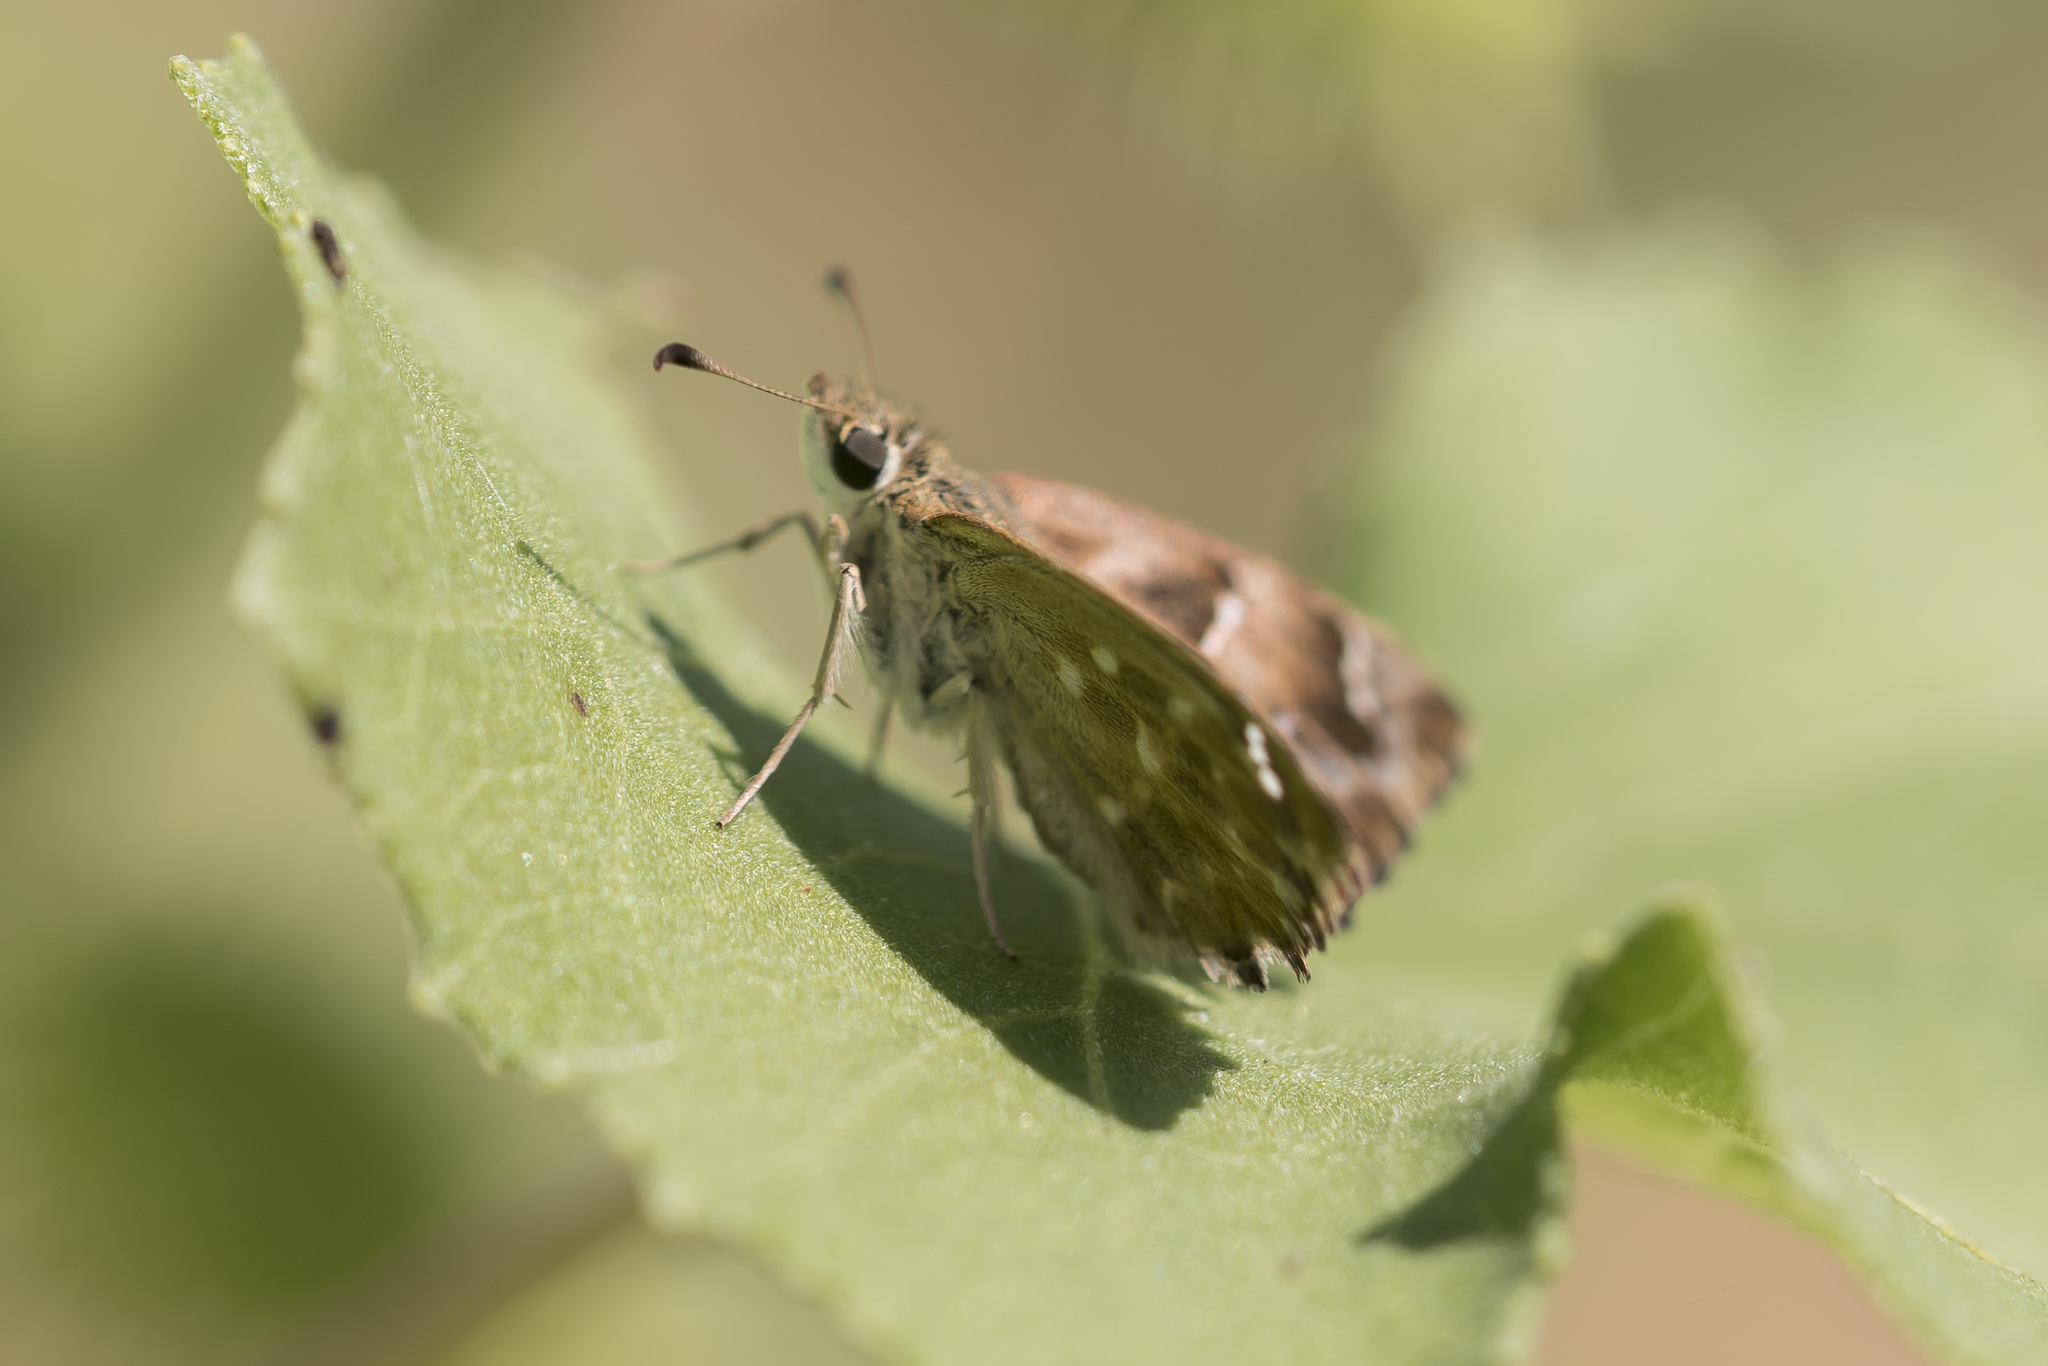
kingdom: Animalia
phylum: Arthropoda
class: Insecta
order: Lepidoptera
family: Hesperiidae
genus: Carcharodus
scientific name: Carcharodus alceae
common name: Mallow skipper
